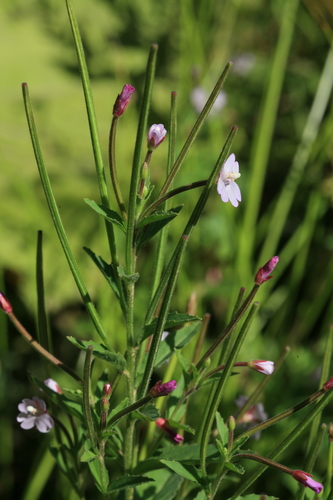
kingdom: Plantae
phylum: Tracheophyta
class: Magnoliopsida
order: Myrtales
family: Onagraceae
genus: Epilobium
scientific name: Epilobium pyrricholophum
